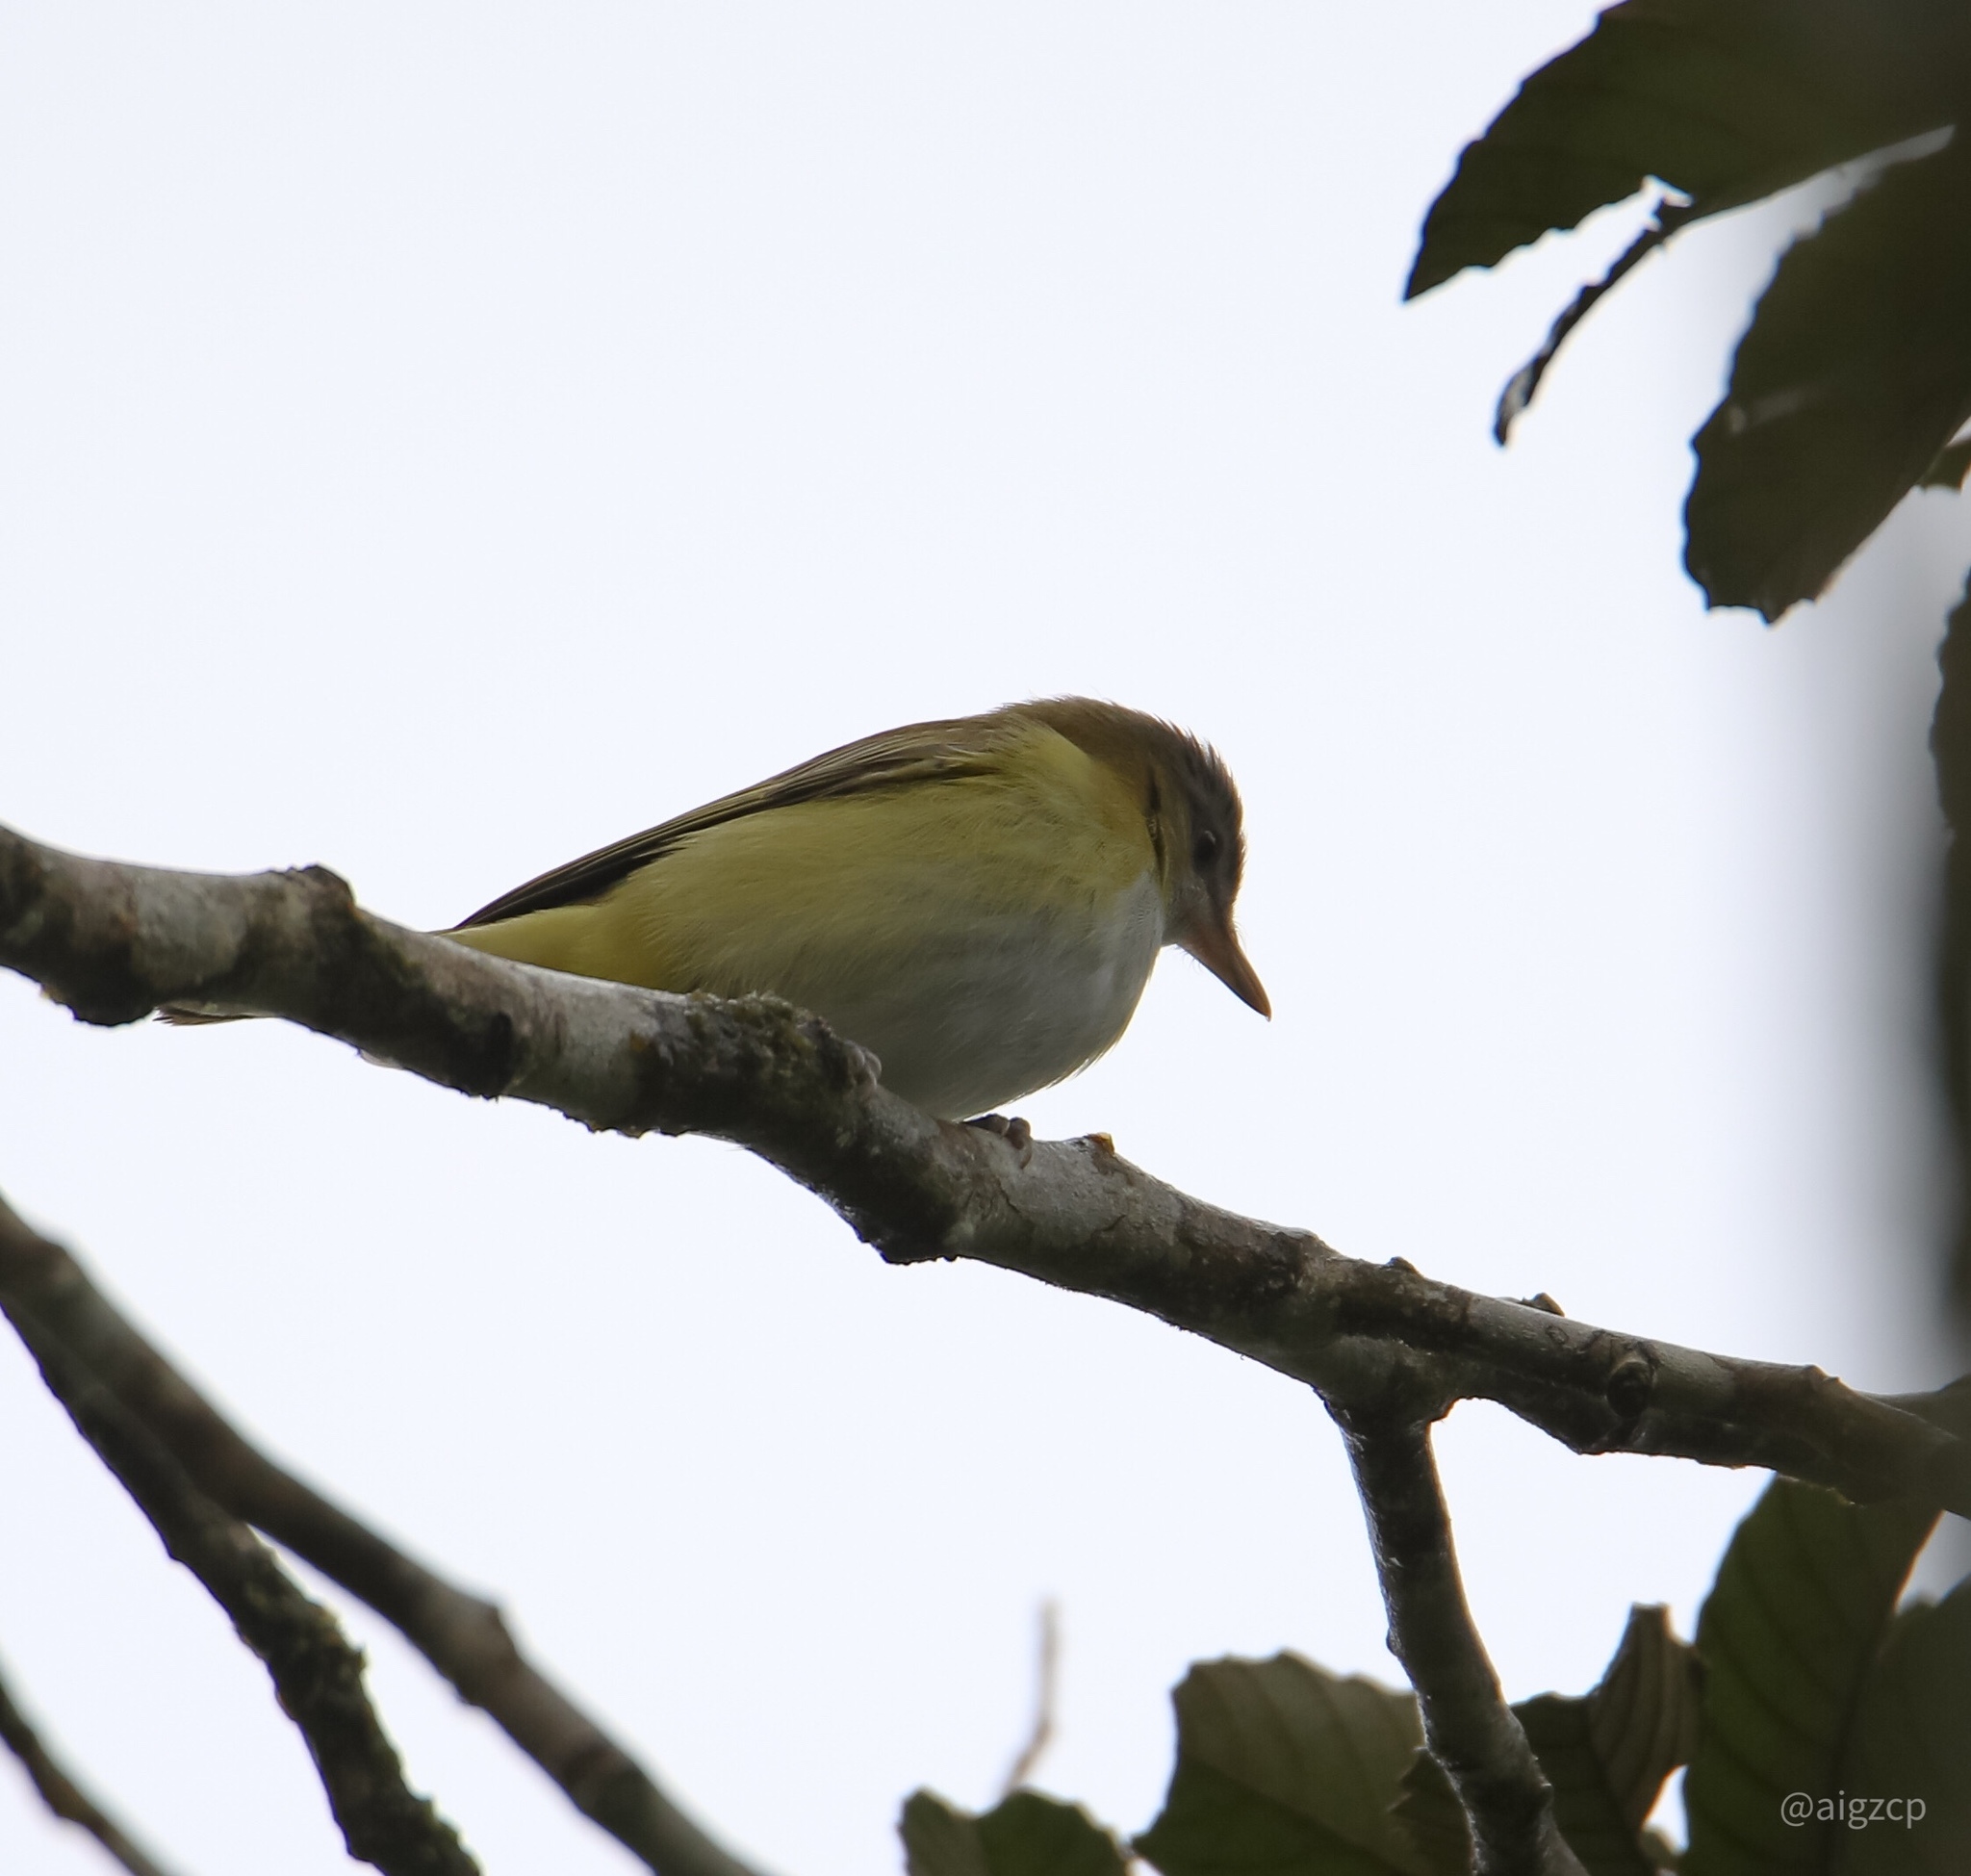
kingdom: Animalia
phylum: Chordata
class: Aves
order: Passeriformes
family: Vireonidae
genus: Vireo
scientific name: Vireo flavoviridis
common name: Yellow-green vireo
